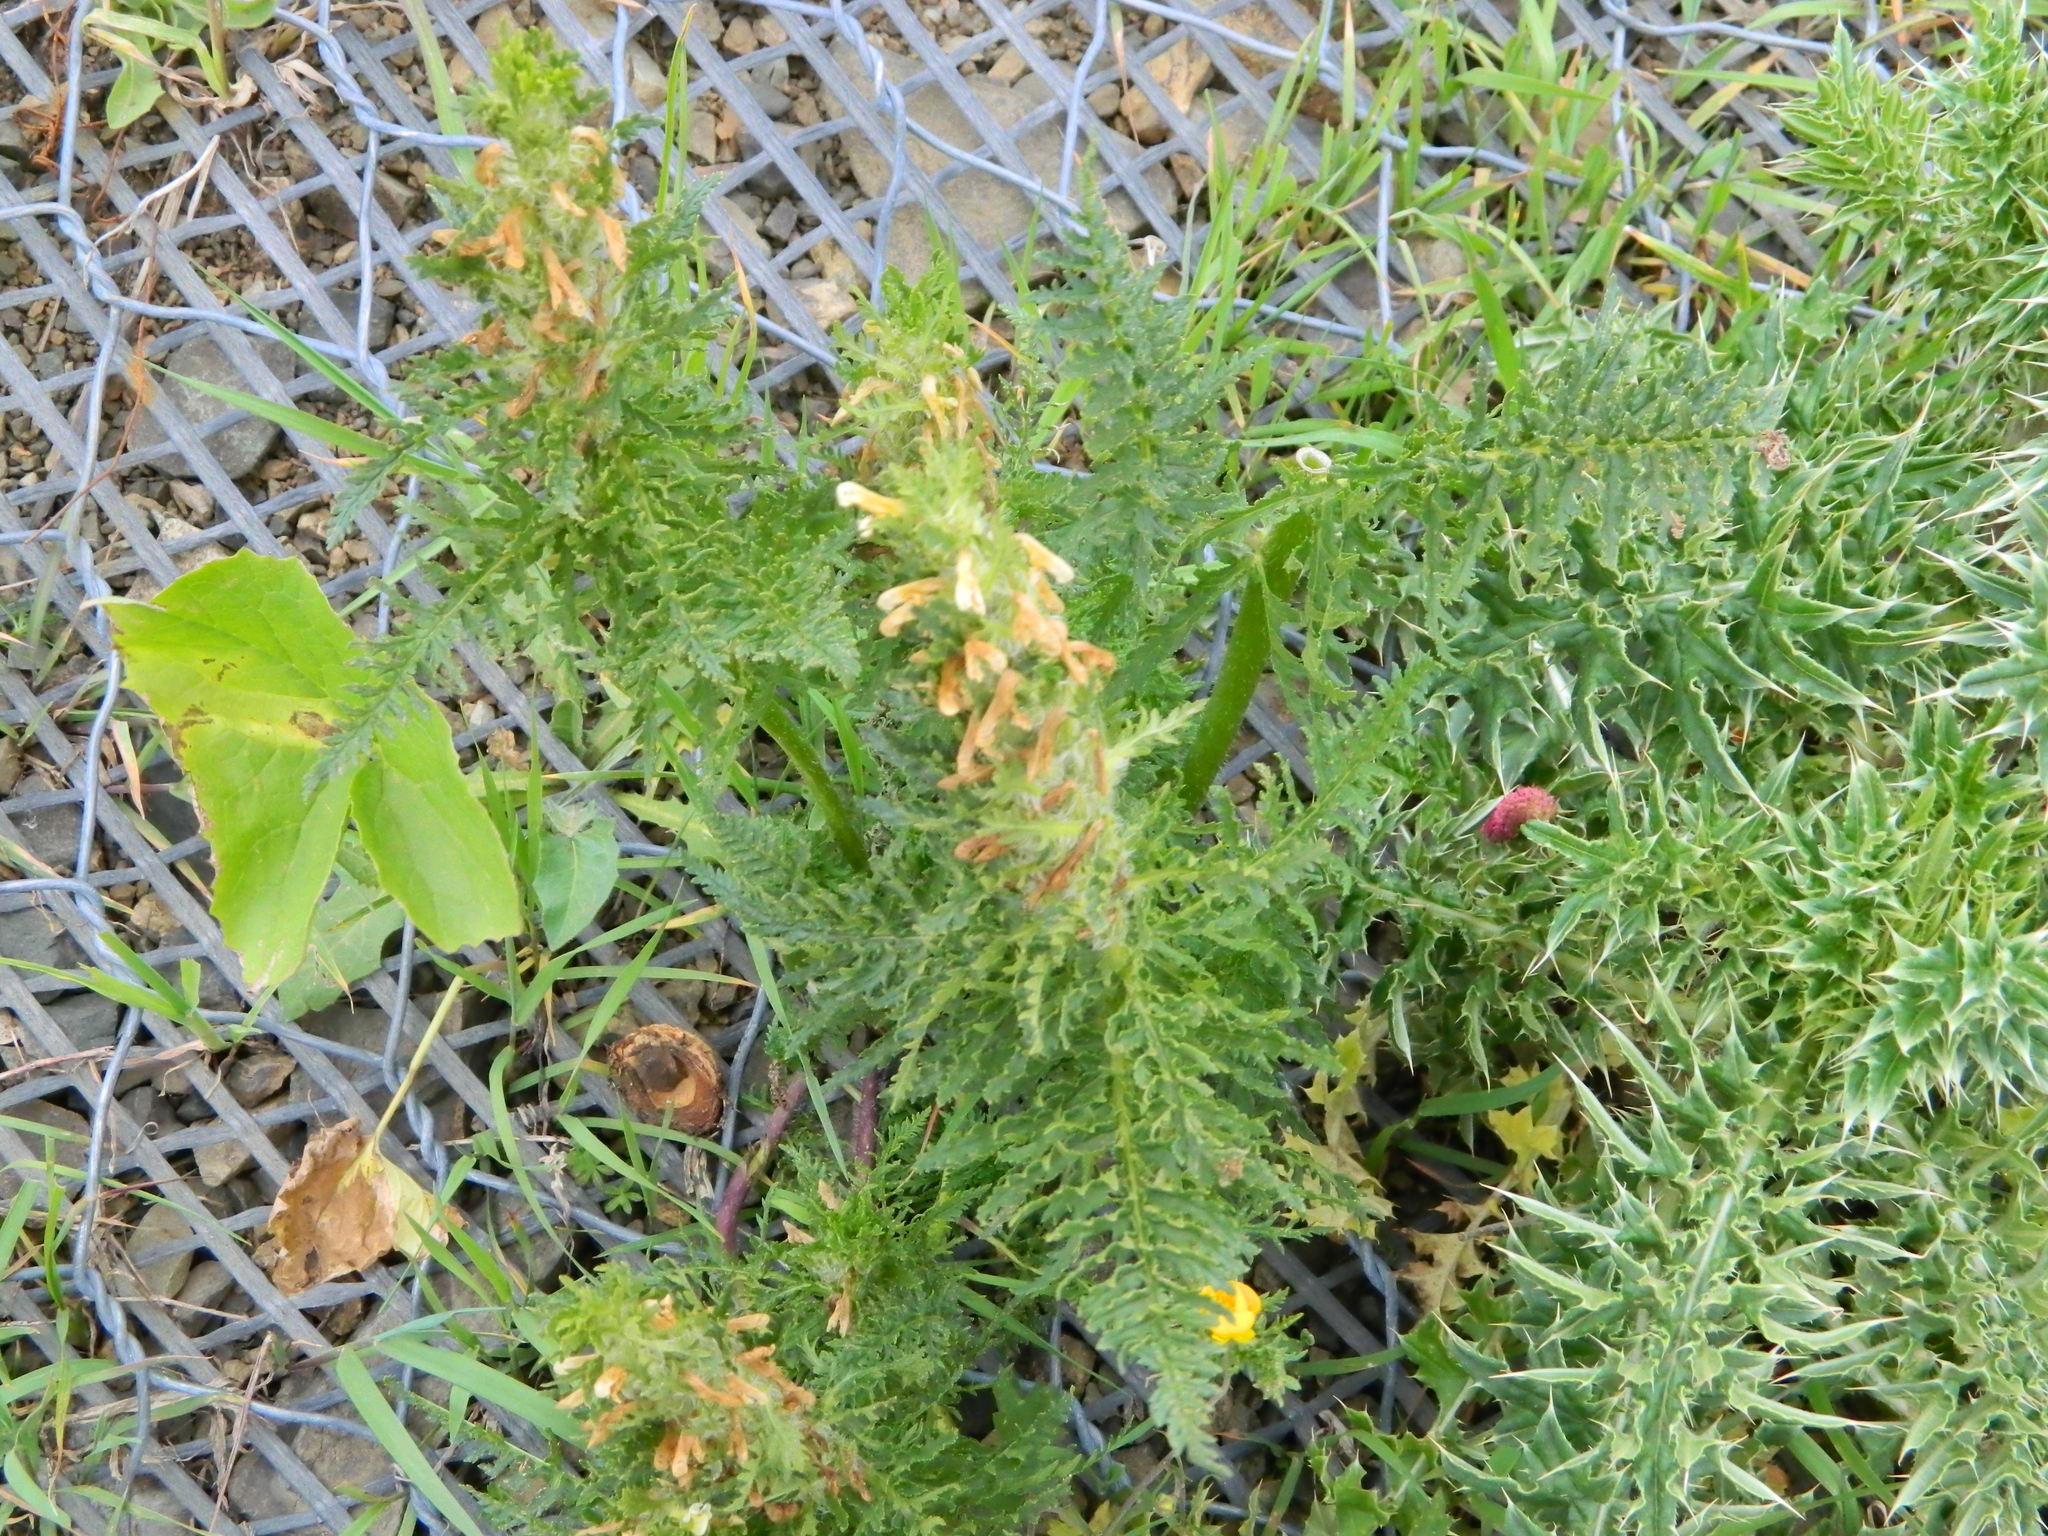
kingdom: Plantae
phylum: Tracheophyta
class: Magnoliopsida
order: Lamiales
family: Orobanchaceae
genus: Pedicularis
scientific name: Pedicularis condensata
